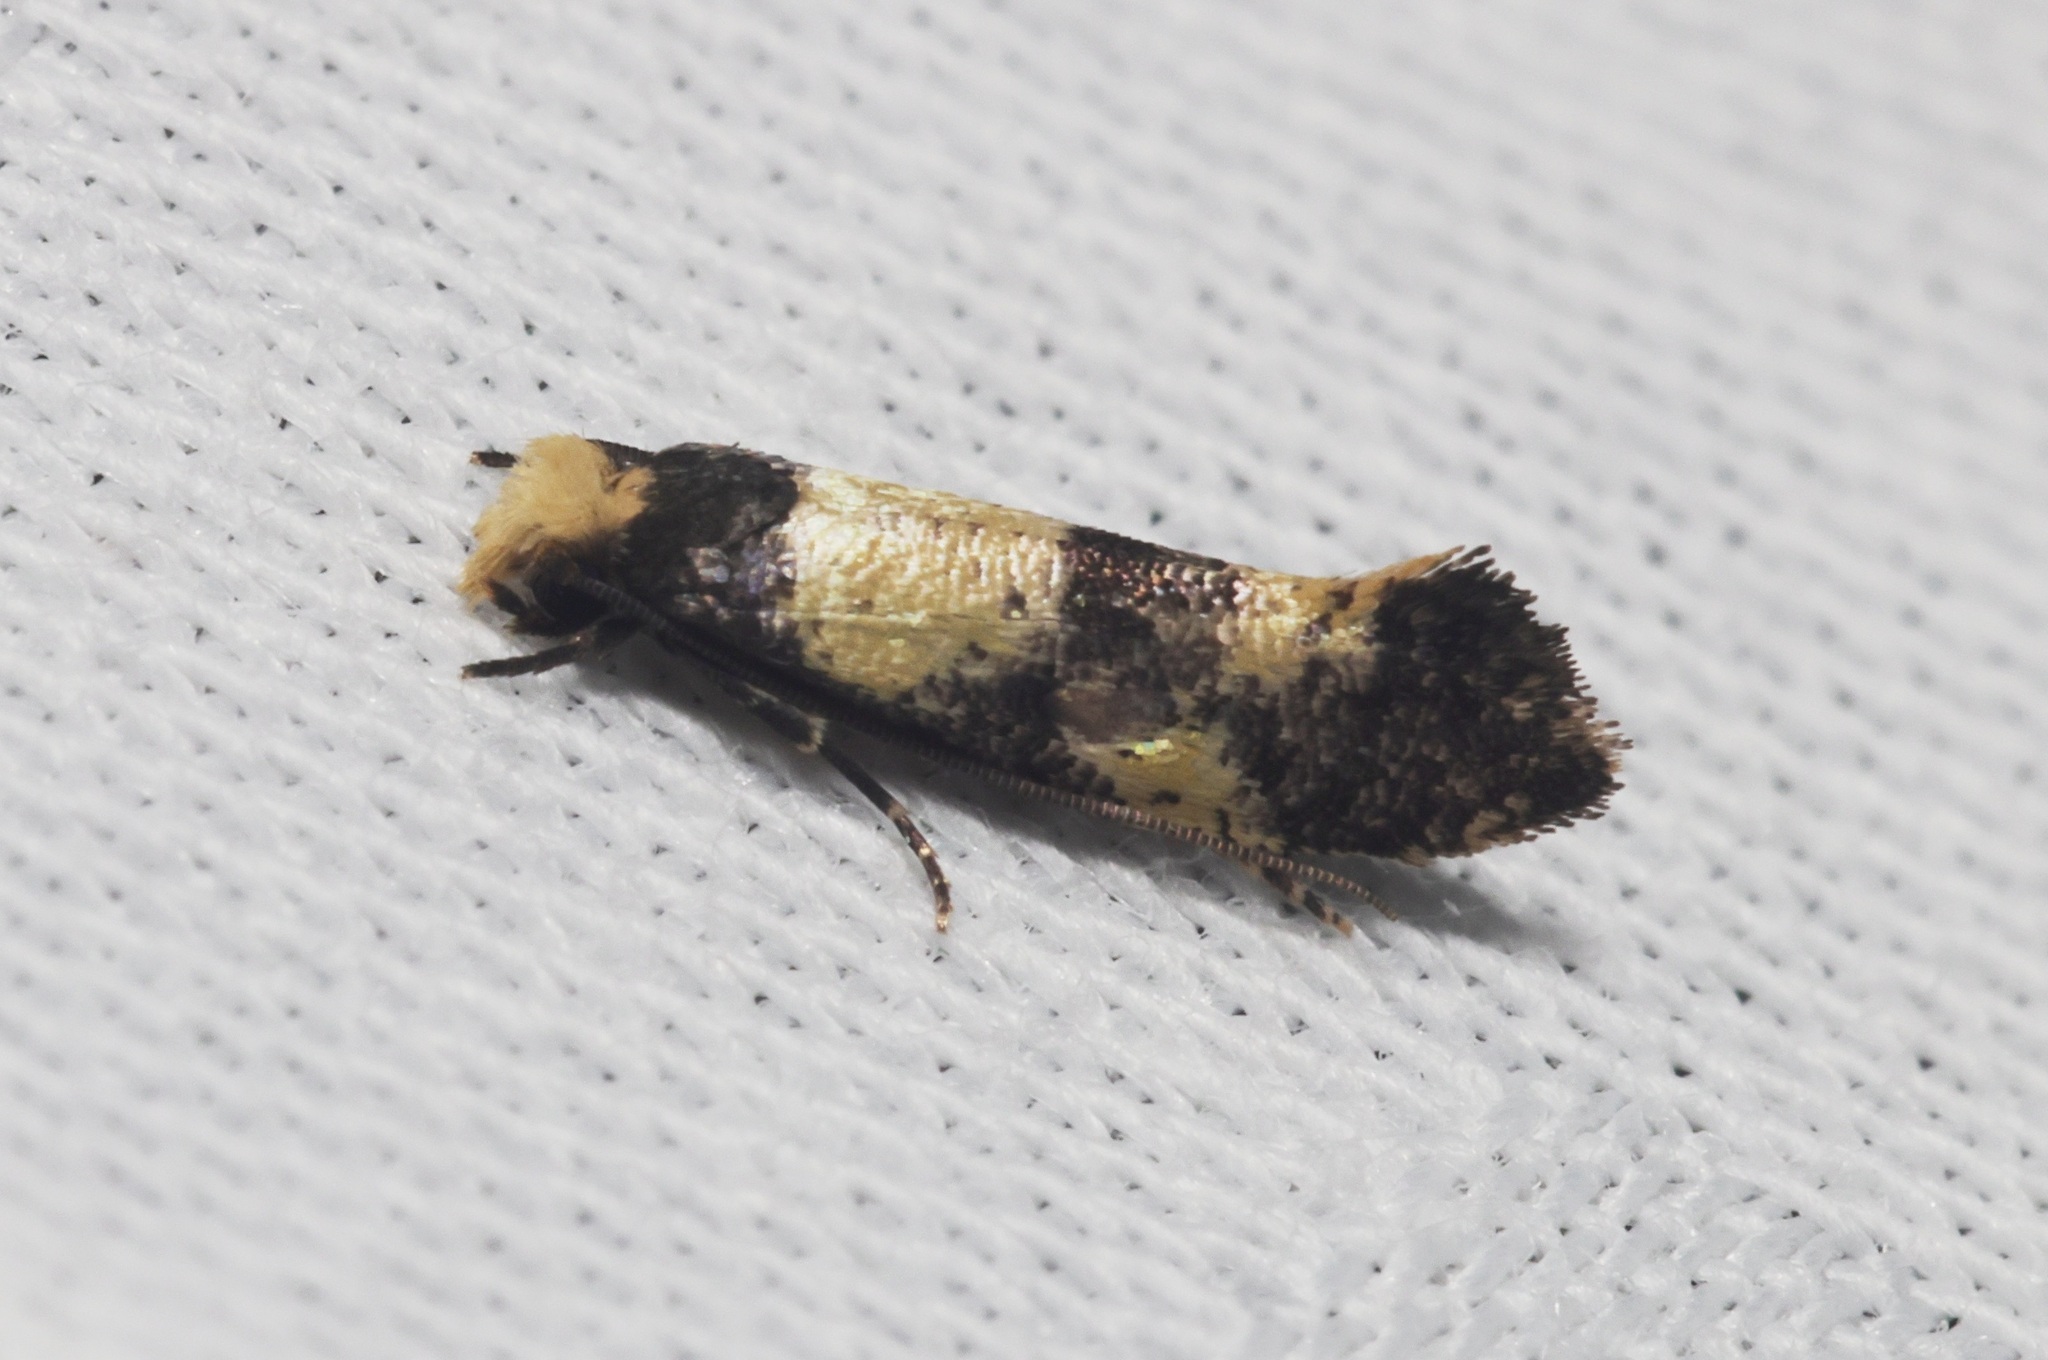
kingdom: Animalia
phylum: Arthropoda
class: Insecta
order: Lepidoptera
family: Tineidae
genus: Monopis
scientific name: Monopis congestella
